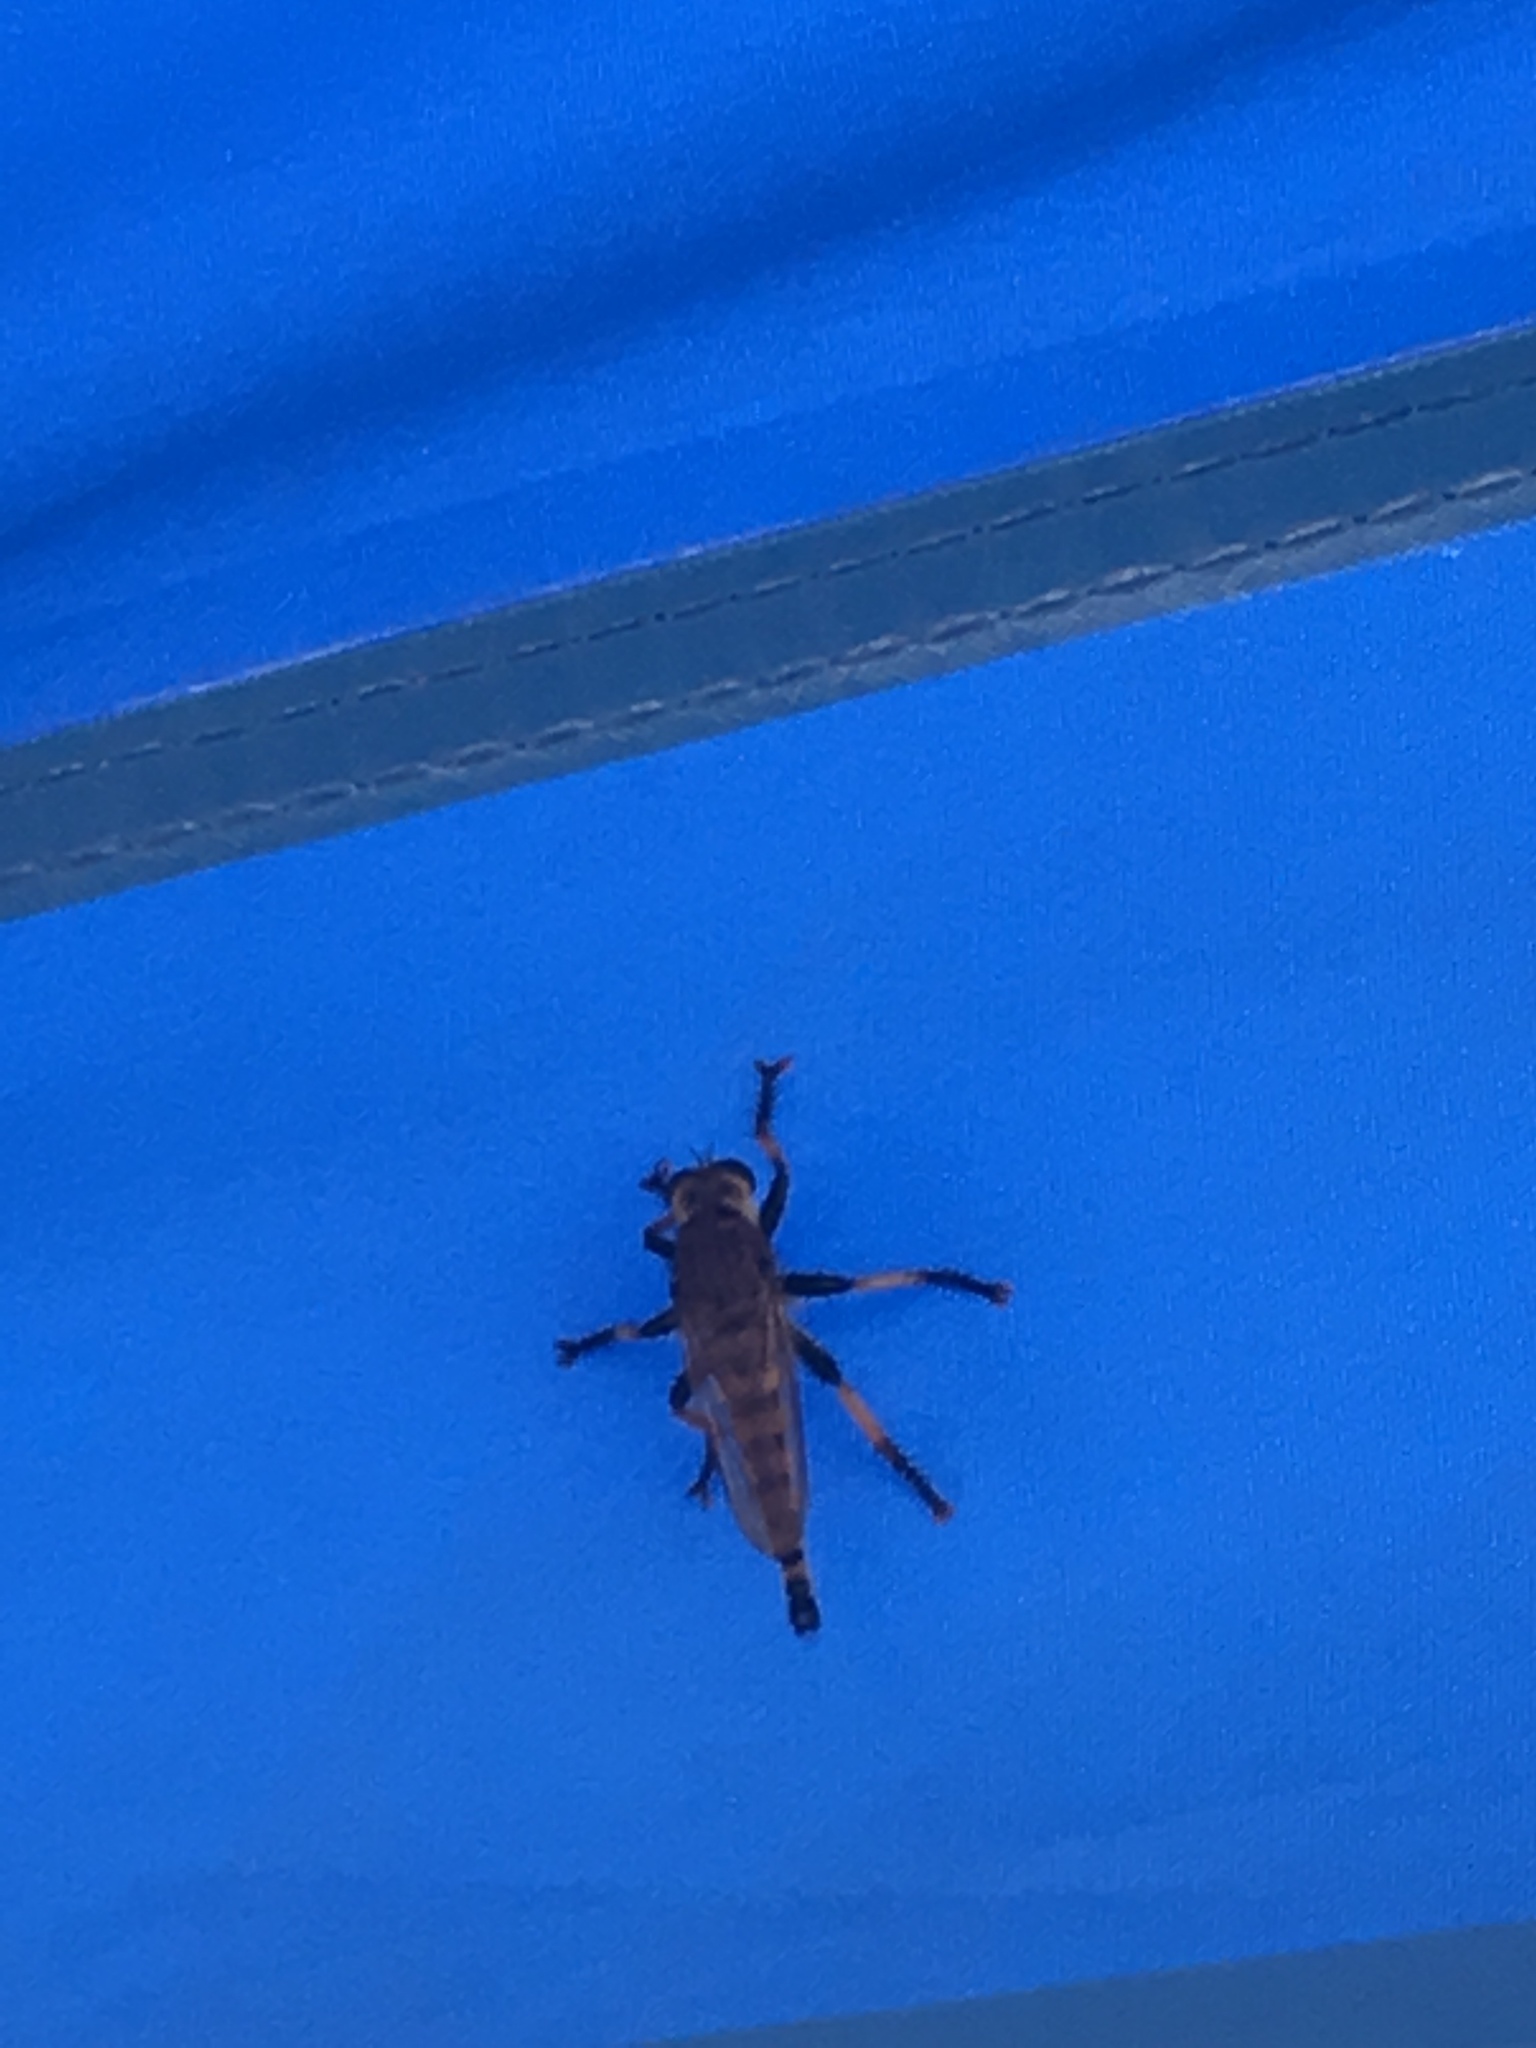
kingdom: Animalia
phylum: Arthropoda
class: Insecta
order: Diptera
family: Asilidae
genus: Promachus
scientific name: Promachus rufipes
